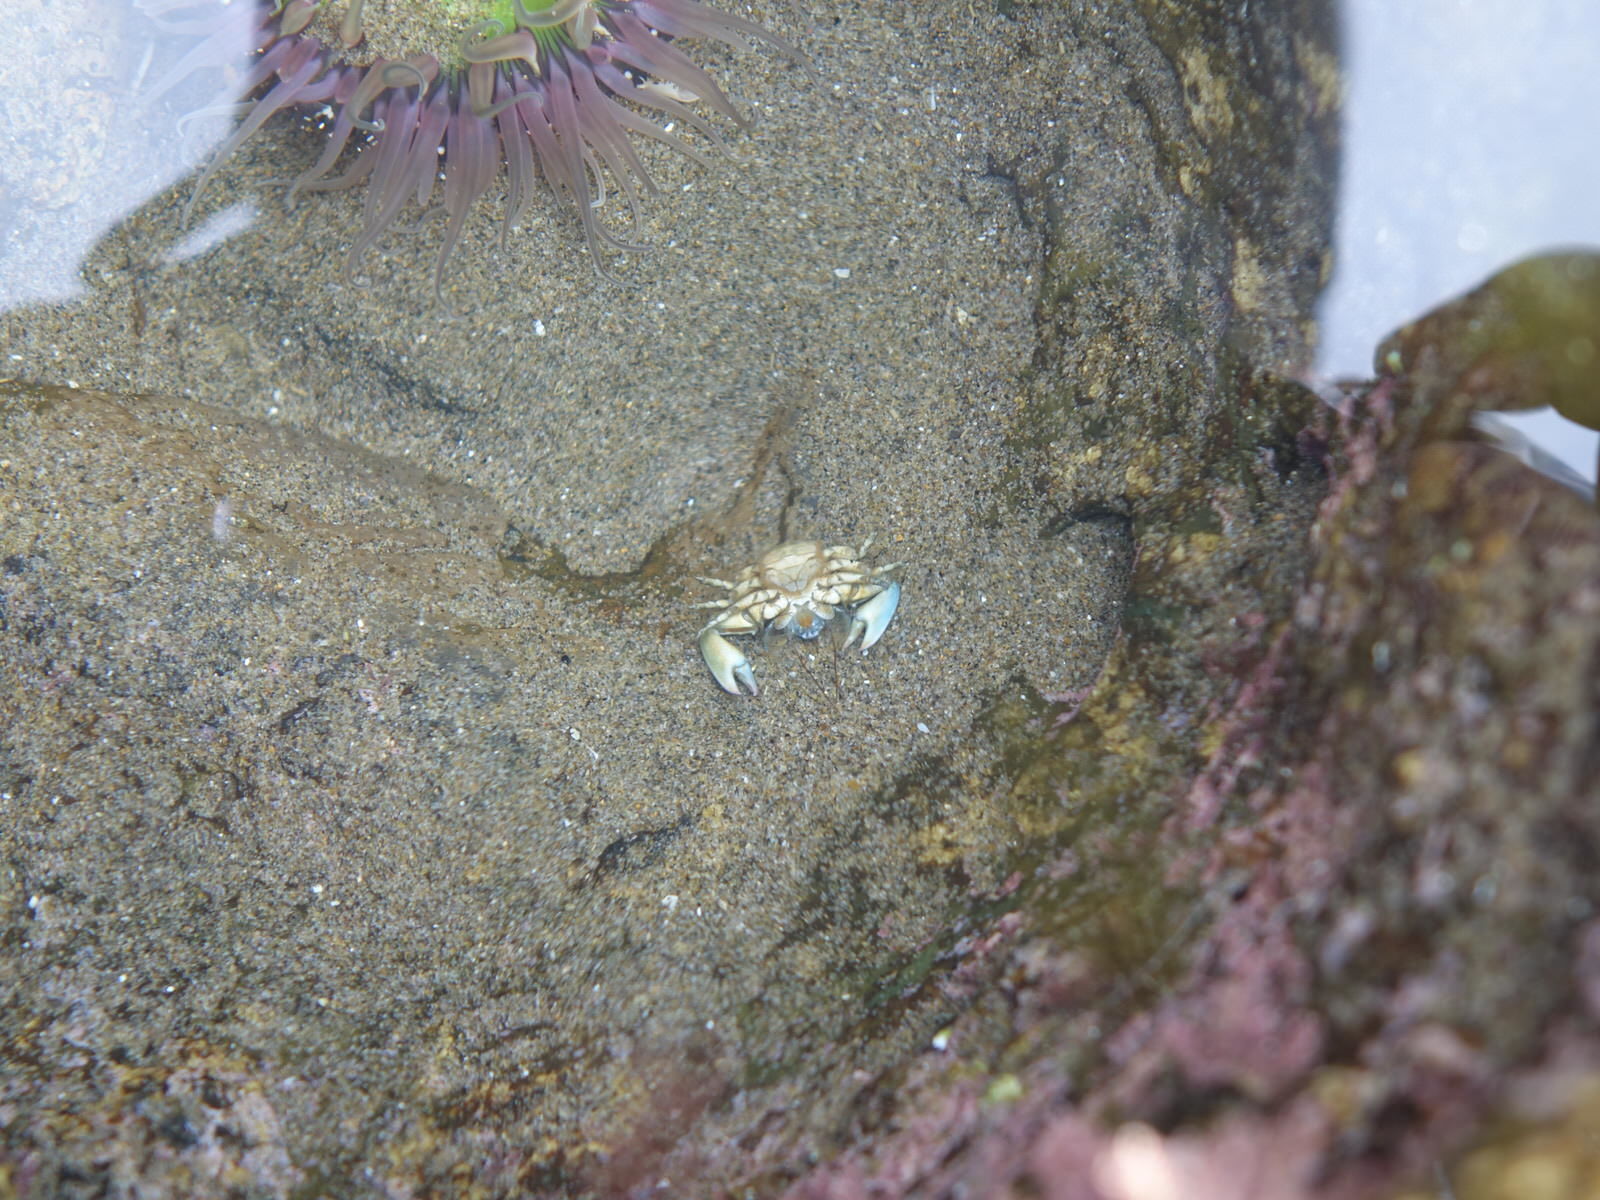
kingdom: Animalia
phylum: Arthropoda
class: Malacostraca
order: Decapoda
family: Porcellanidae
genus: Petrolisthes
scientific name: Petrolisthes elongatus
